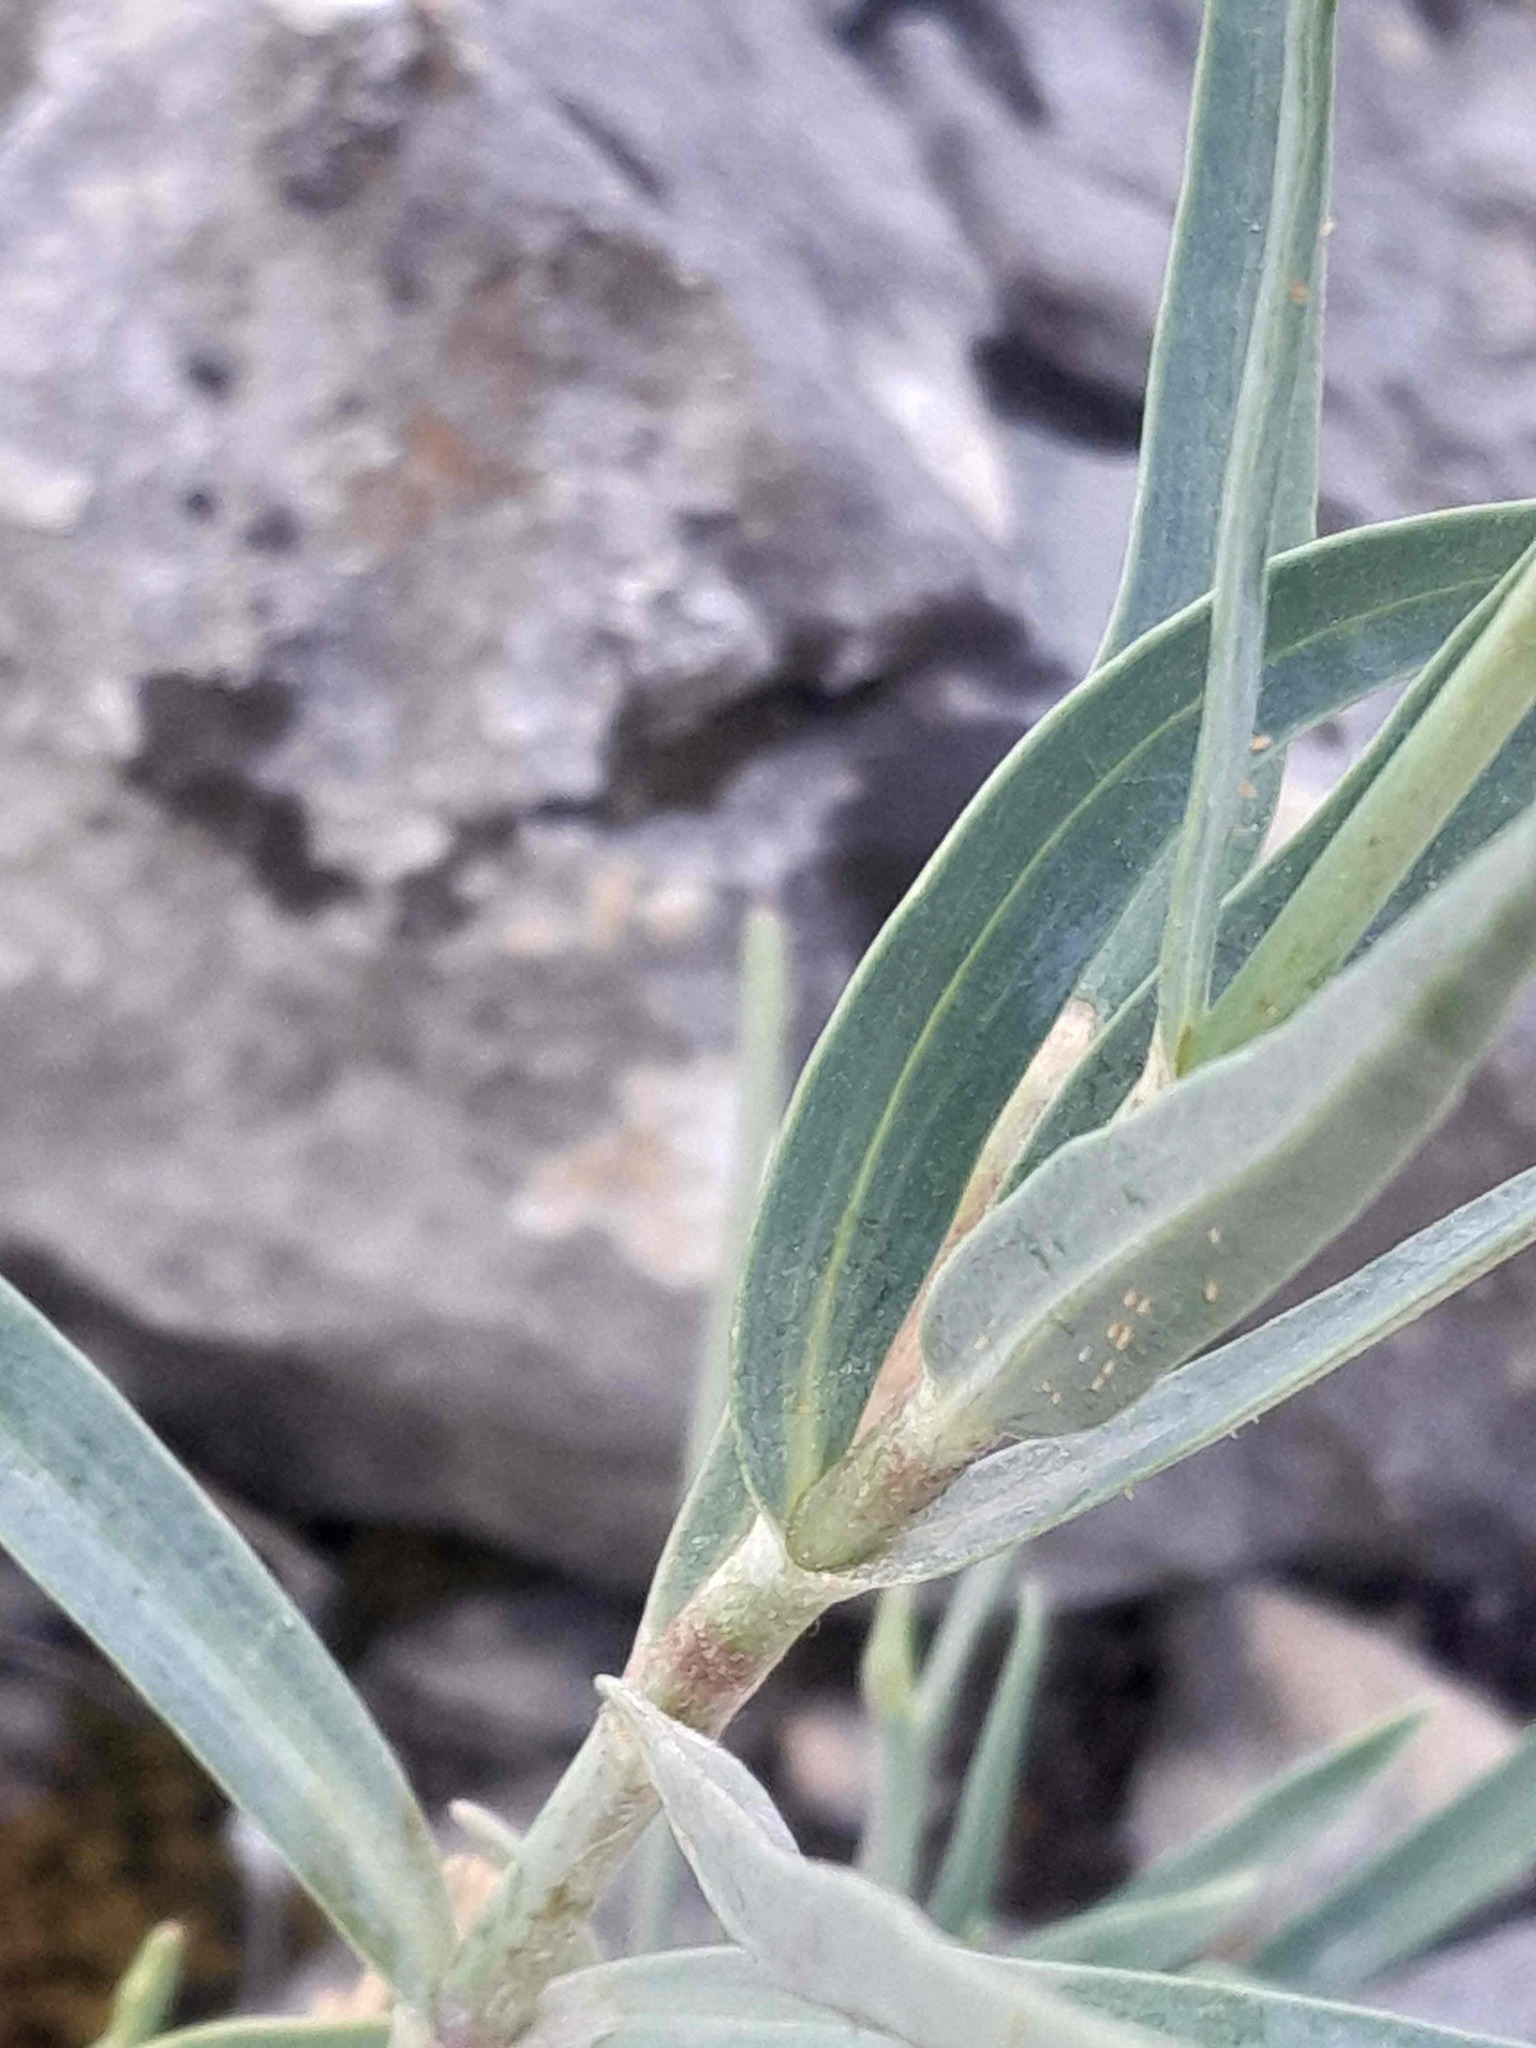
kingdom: Plantae
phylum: Tracheophyta
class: Magnoliopsida
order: Dipsacales
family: Caprifoliaceae
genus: Centranthus
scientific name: Centranthus lecoqii
